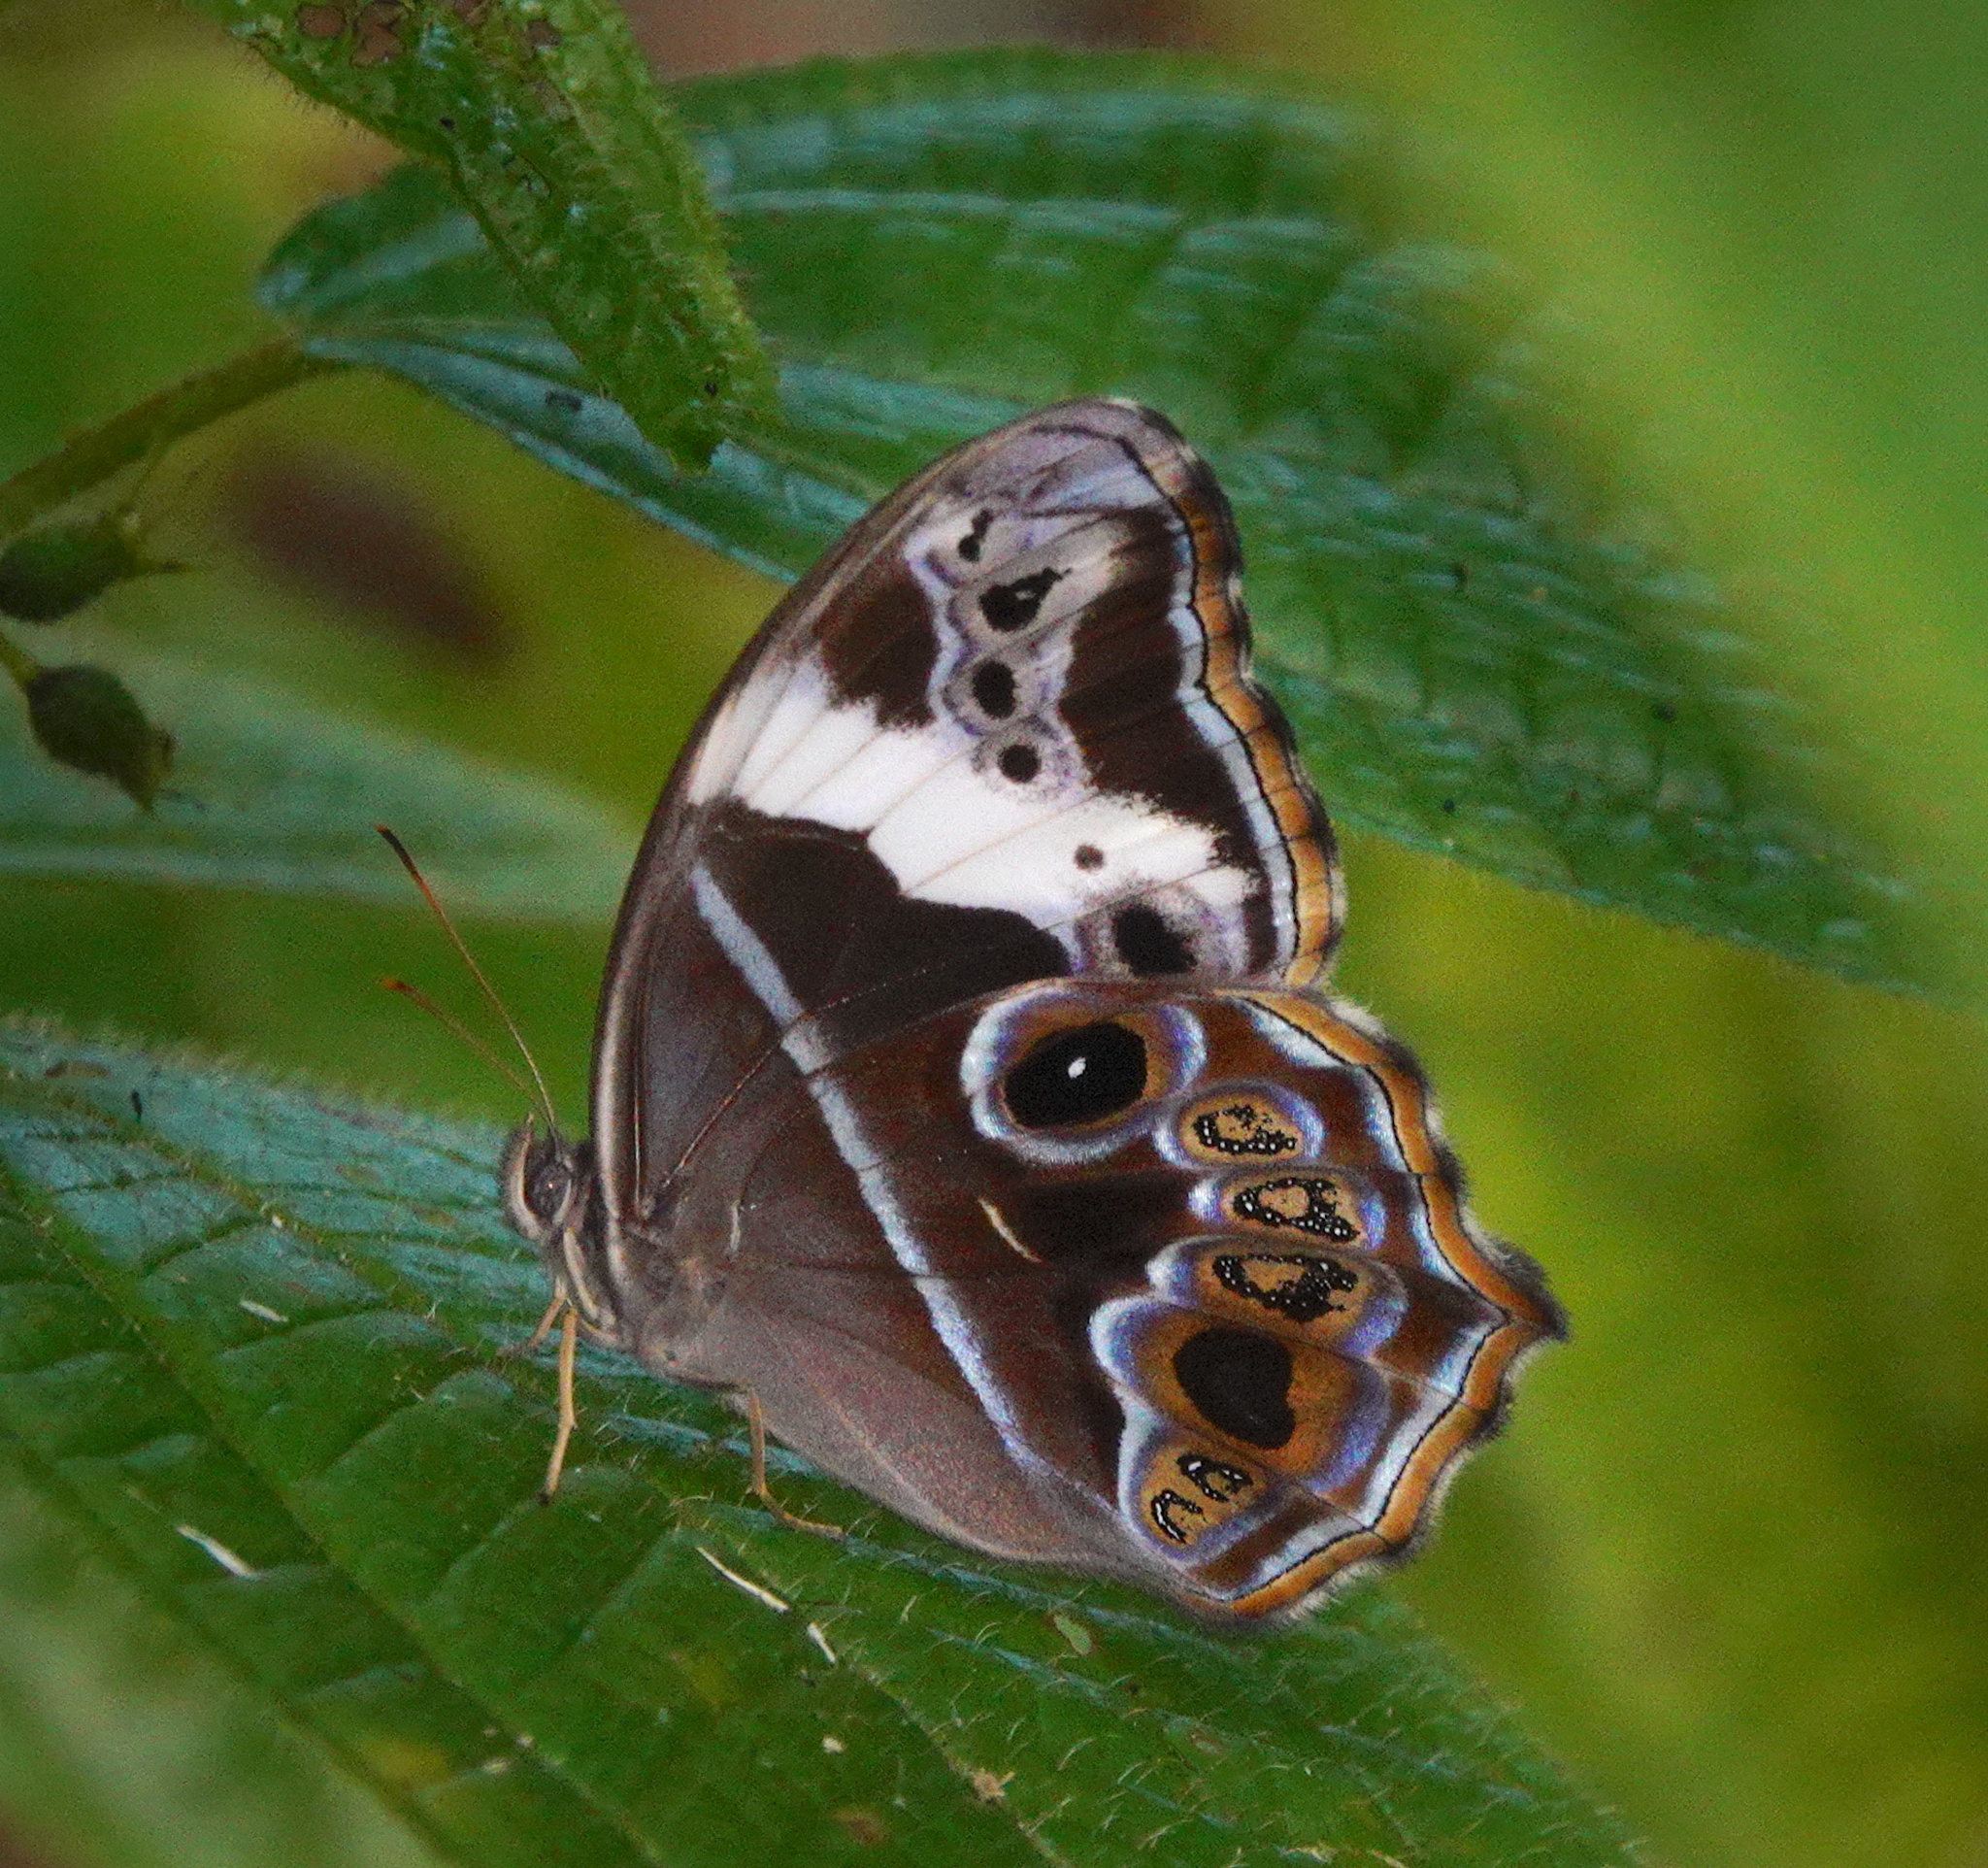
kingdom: Animalia
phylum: Arthropoda
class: Insecta
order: Lepidoptera
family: Nymphalidae
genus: Lethe
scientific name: Lethe arete
